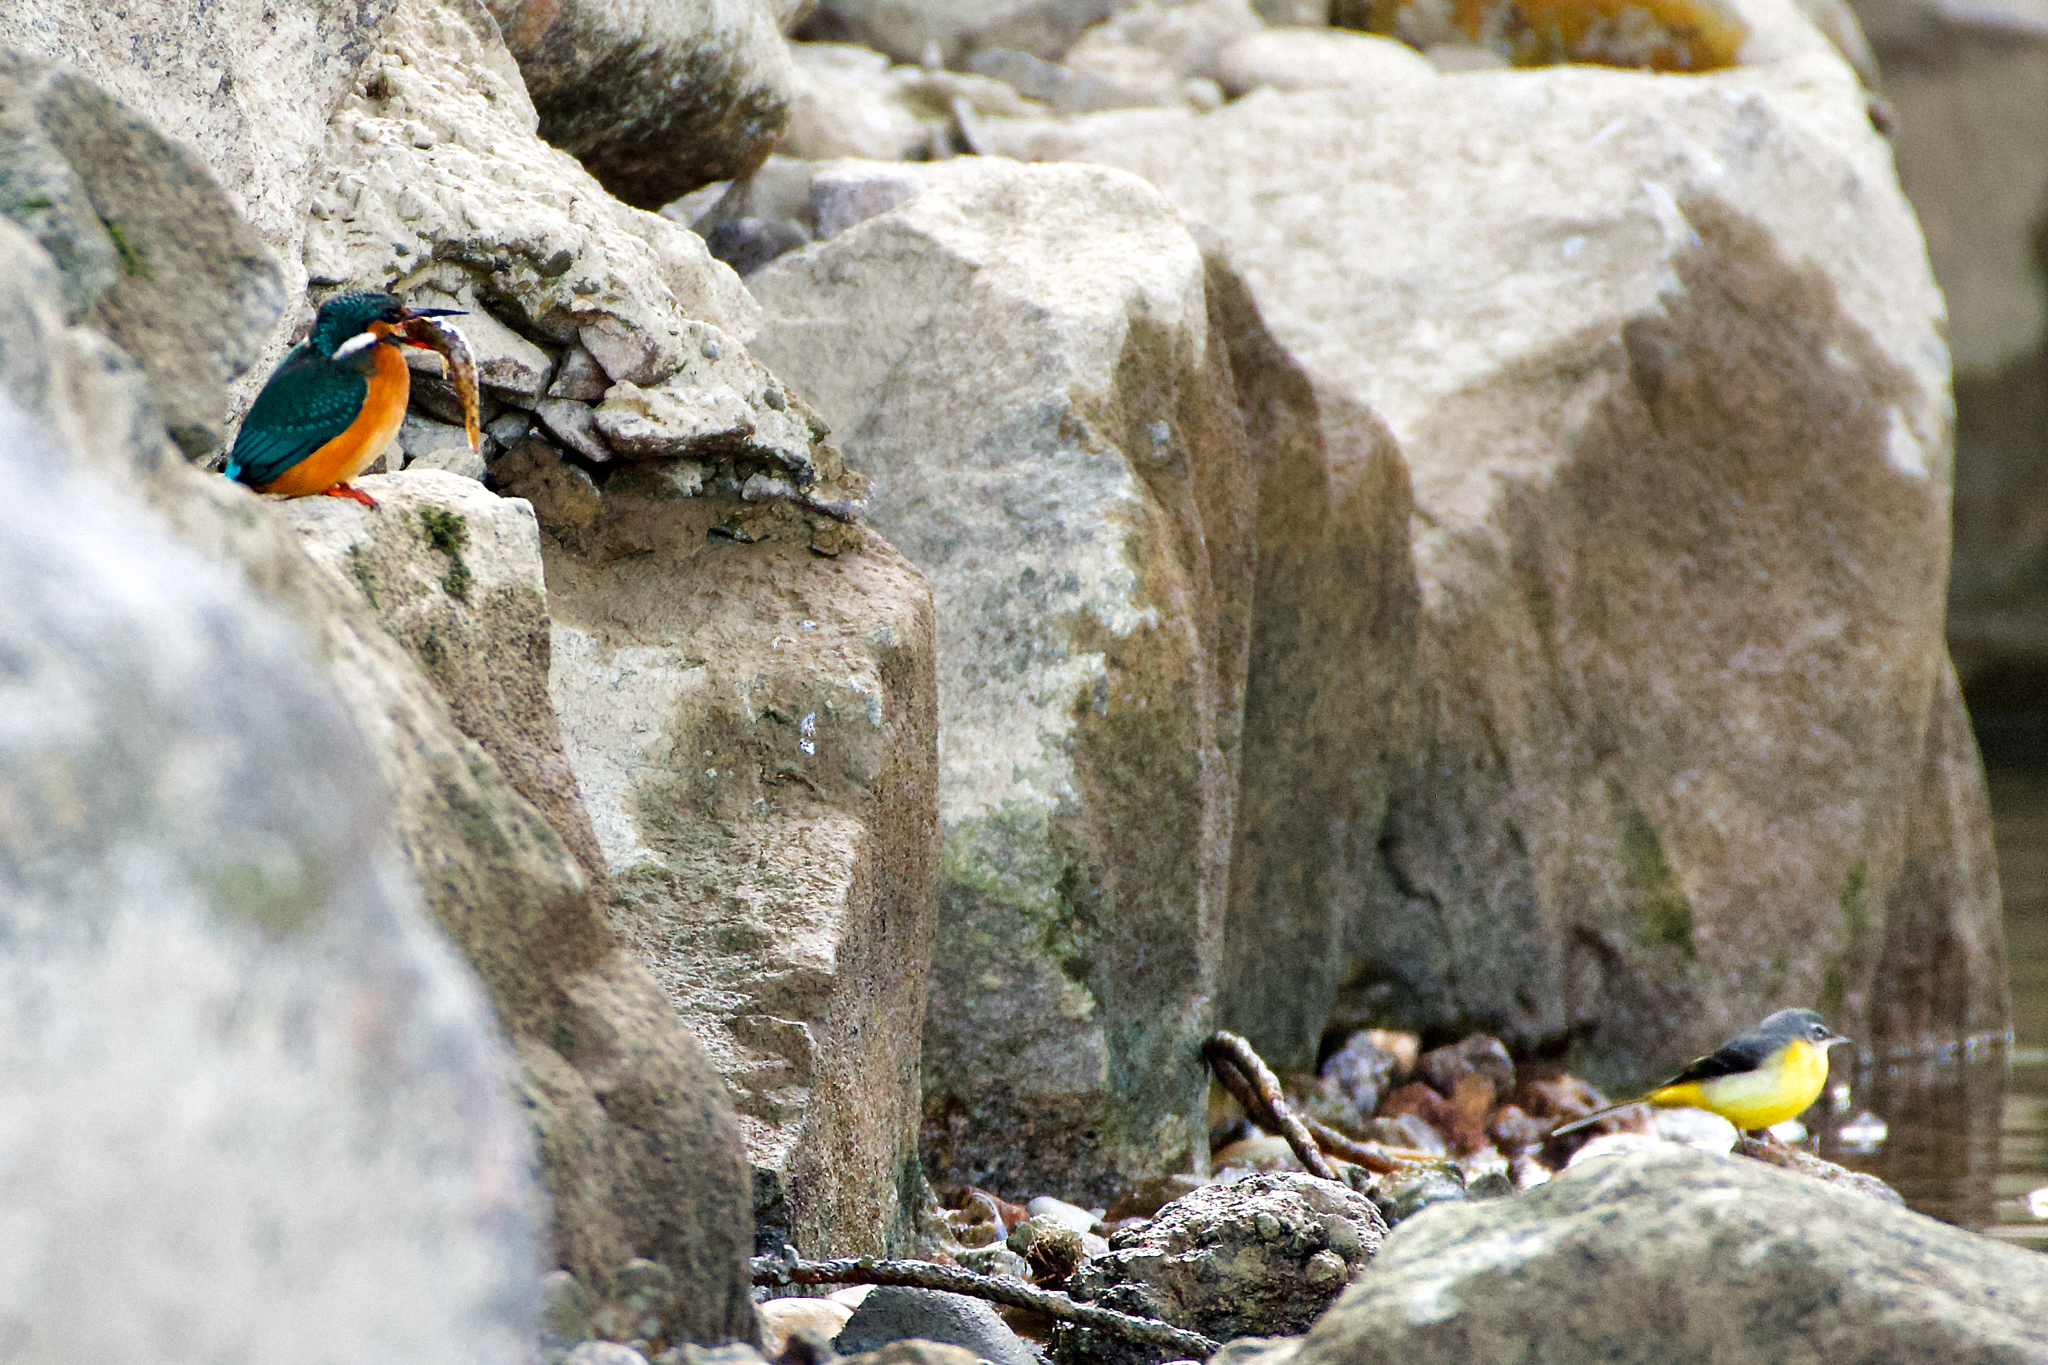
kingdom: Animalia
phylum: Chordata
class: Aves
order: Coraciiformes
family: Alcedinidae
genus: Alcedo
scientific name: Alcedo atthis
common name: Common kingfisher
